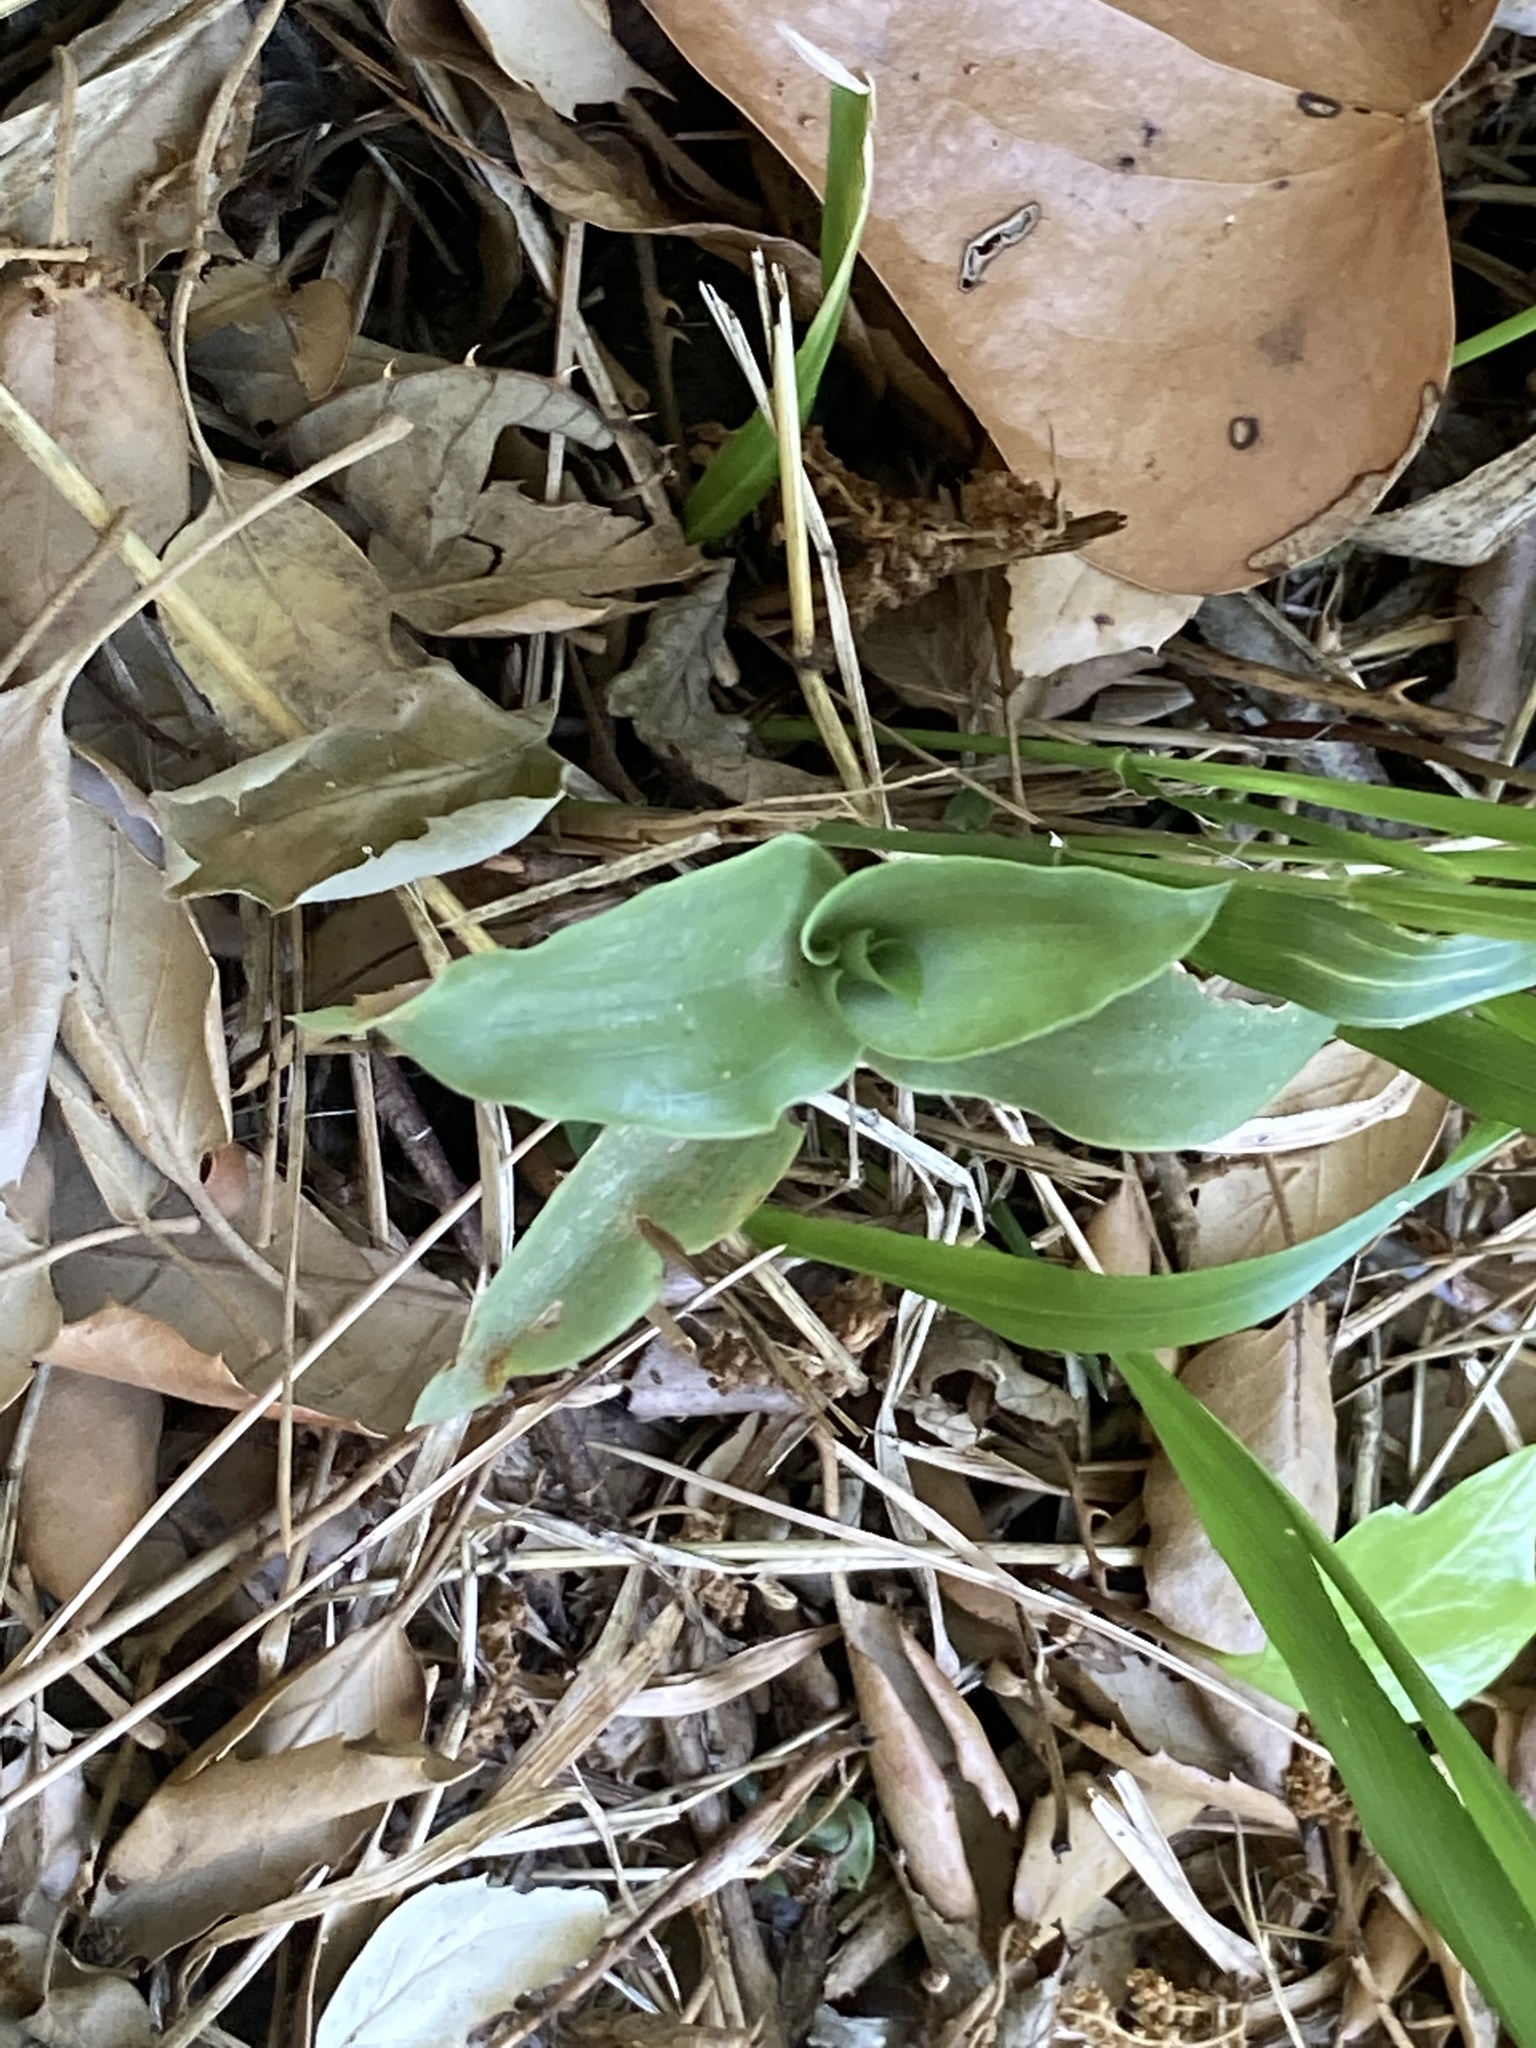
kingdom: Plantae
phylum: Tracheophyta
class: Liliopsida
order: Commelinales
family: Commelinaceae
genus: Tradescantia
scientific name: Tradescantia fluminensis
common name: Wandering-jew
